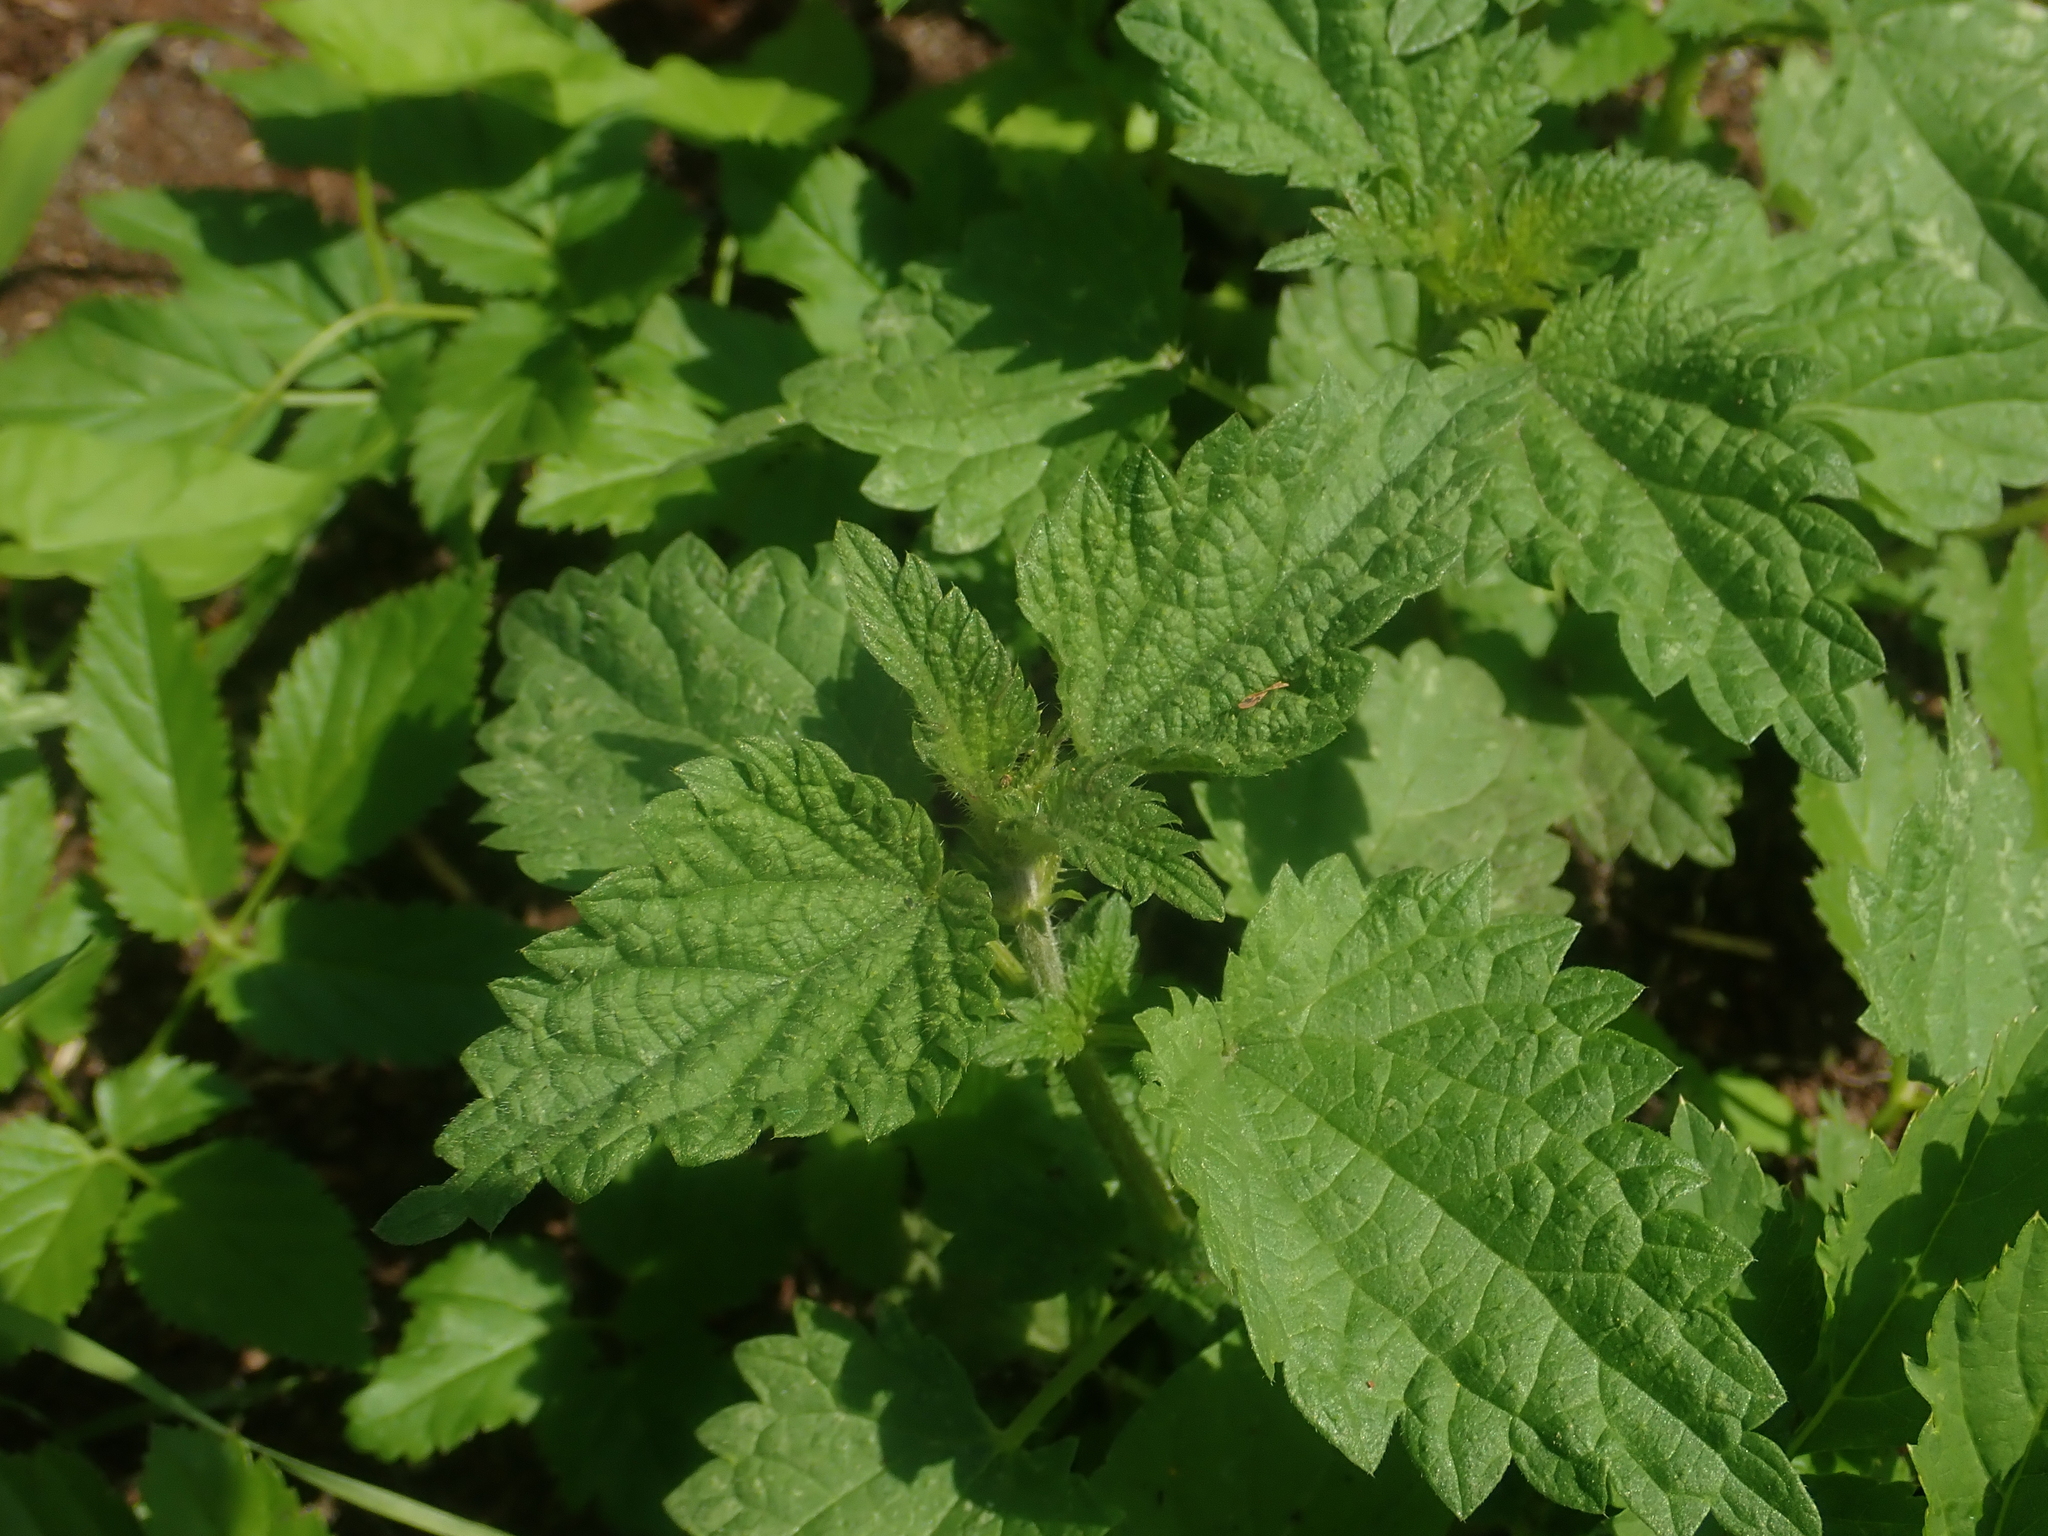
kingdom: Plantae
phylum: Tracheophyta
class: Magnoliopsida
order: Rosales
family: Urticaceae
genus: Urtica
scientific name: Urtica dioica
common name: Common nettle
